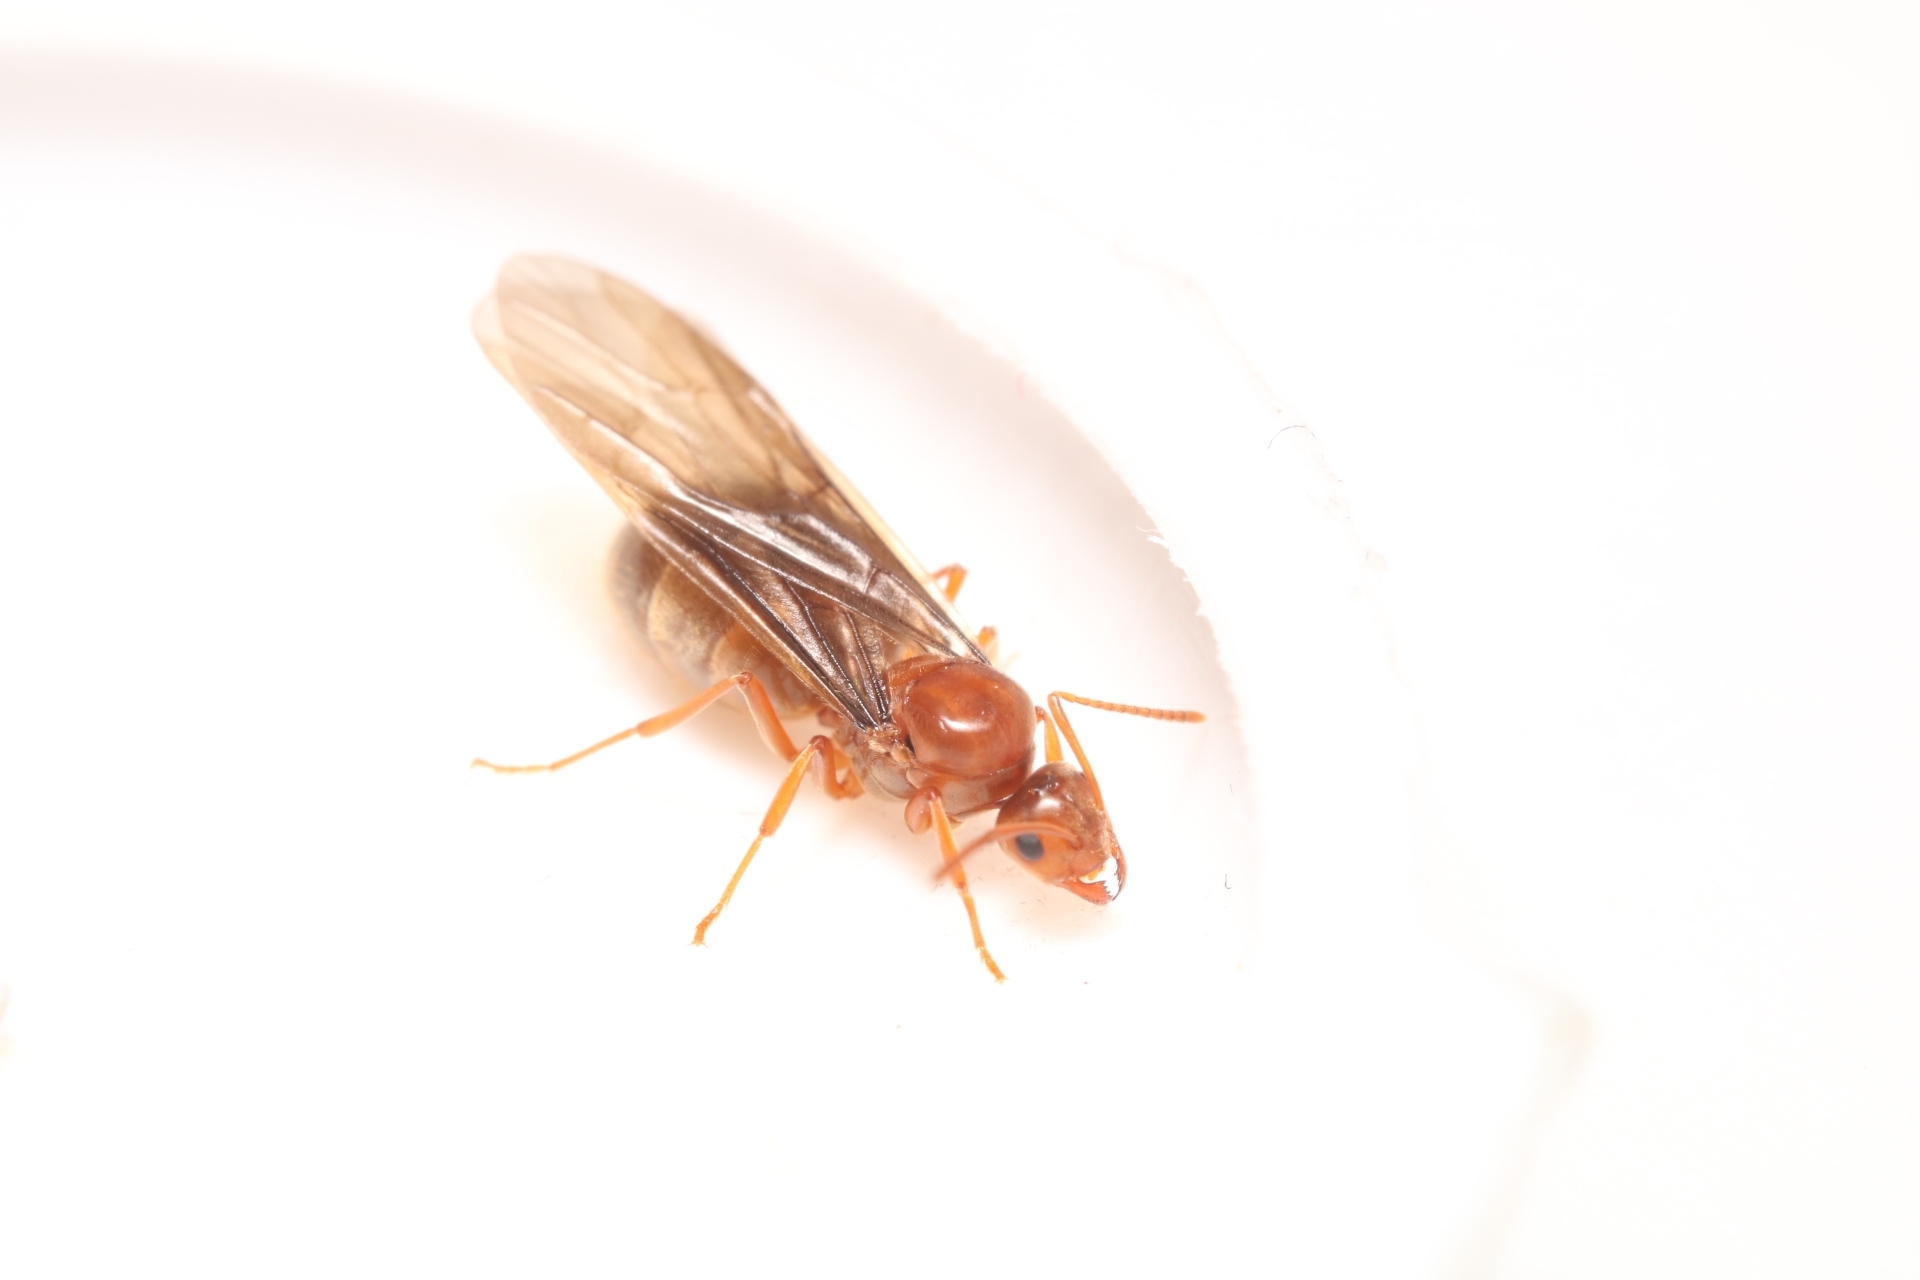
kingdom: Animalia
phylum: Arthropoda
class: Insecta
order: Hymenoptera
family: Formicidae
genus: Prenolepis
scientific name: Prenolepis imparis
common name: Small honey ant
